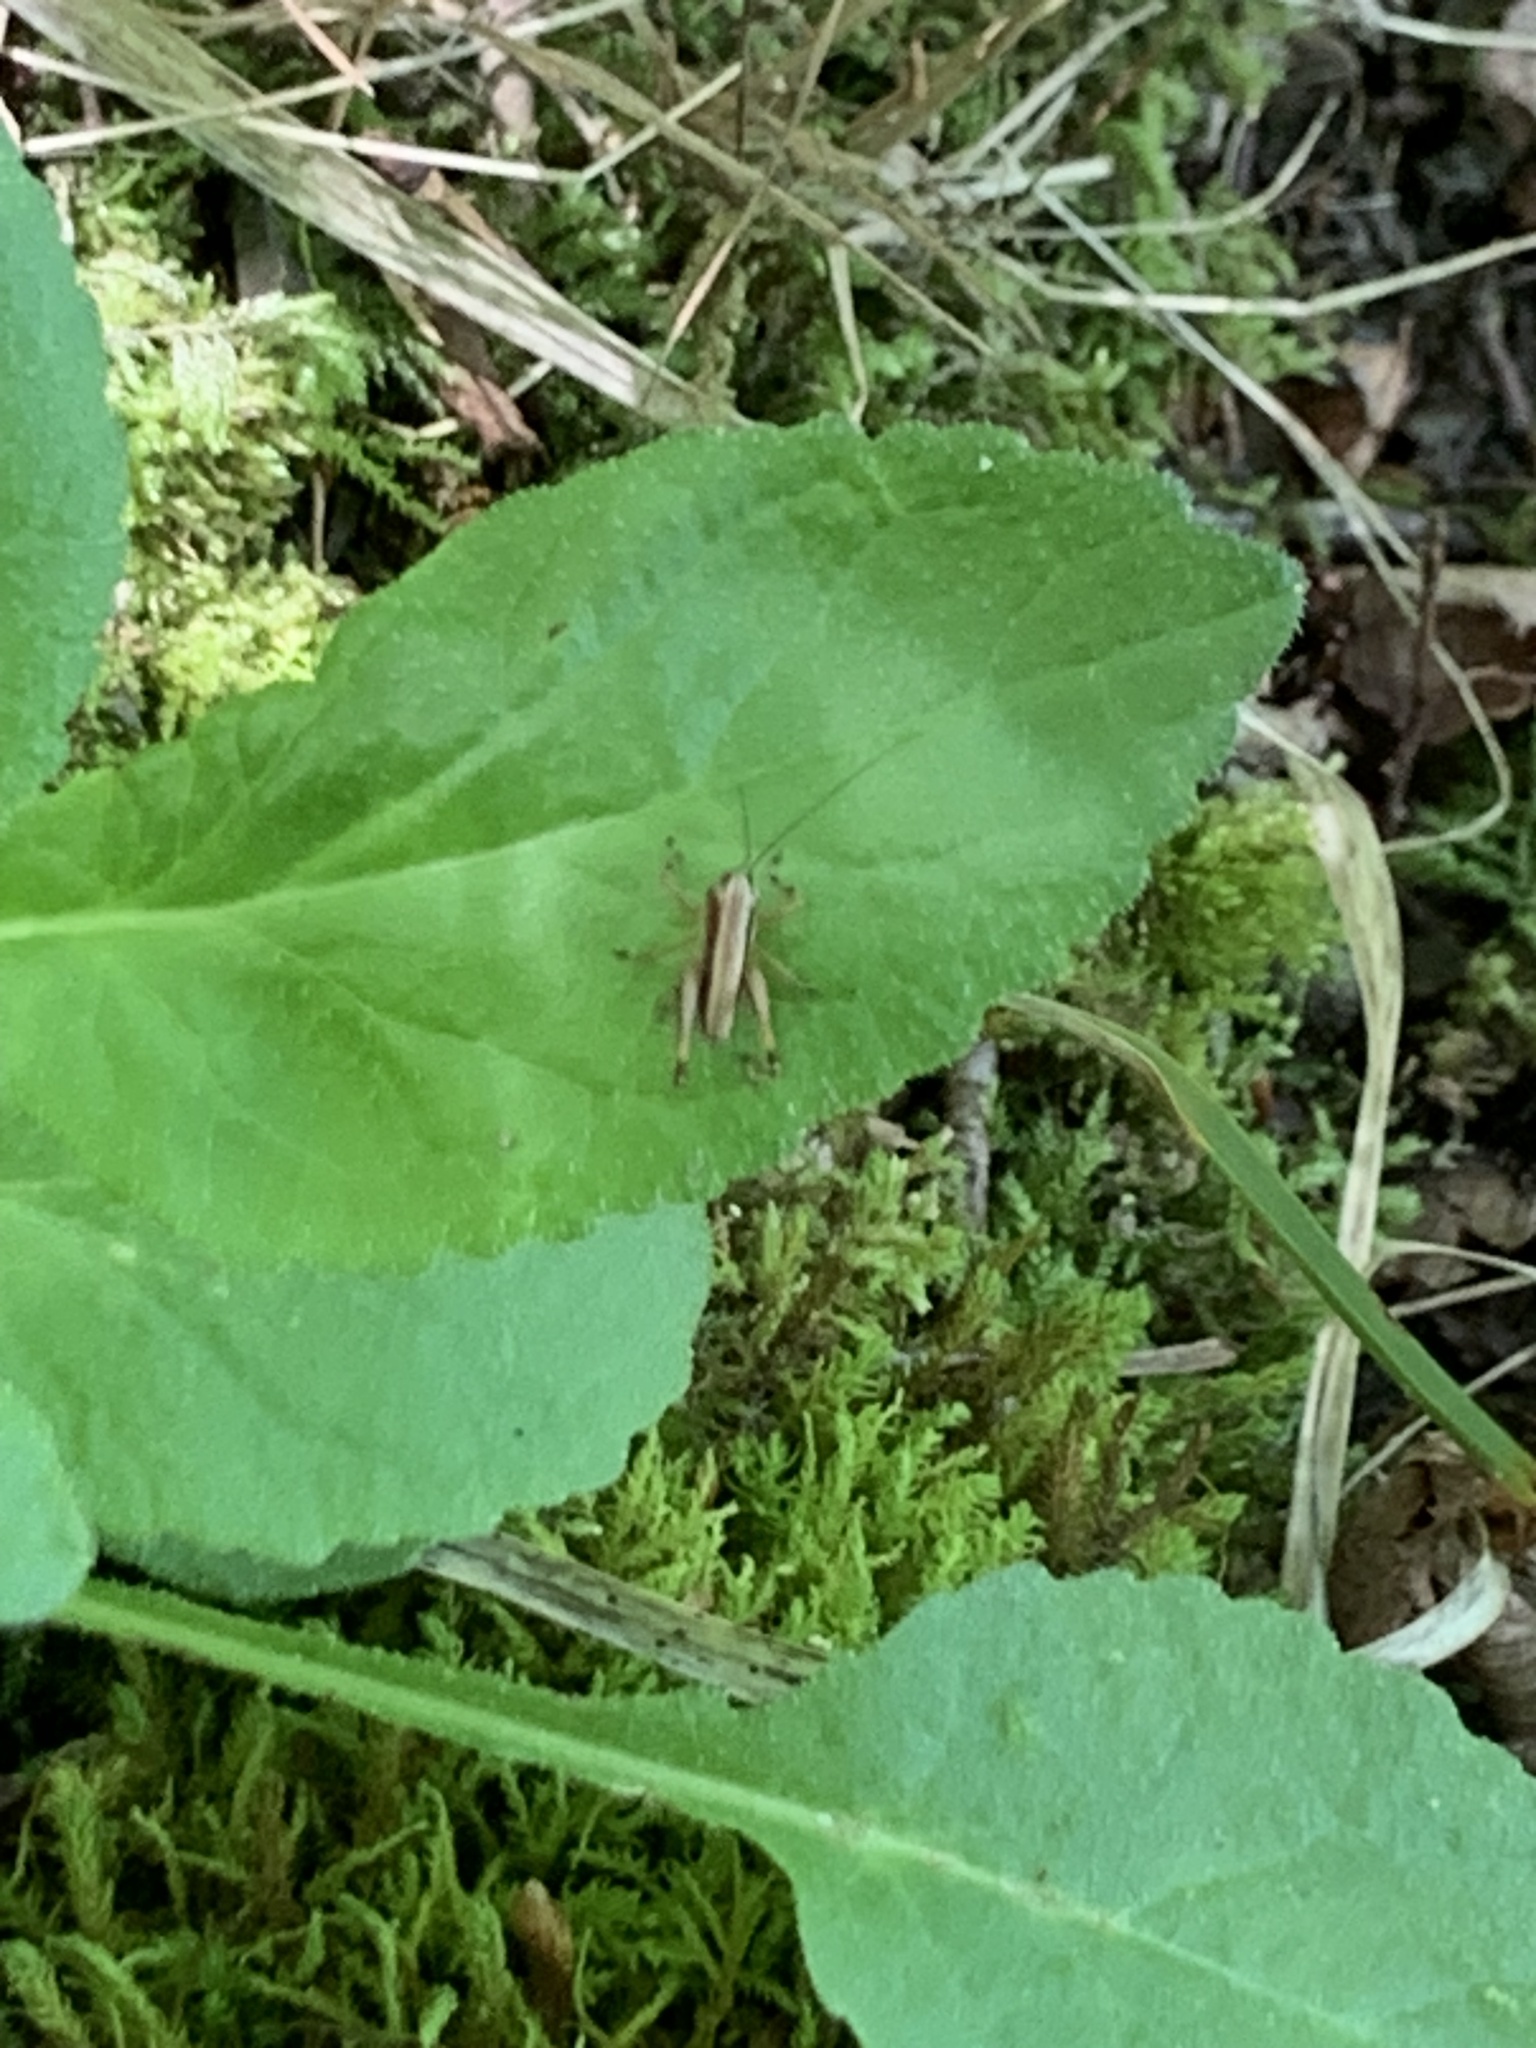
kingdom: Animalia
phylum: Arthropoda
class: Insecta
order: Orthoptera
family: Tettigoniidae
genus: Pholidoptera
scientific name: Pholidoptera griseoaptera
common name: Dark bush-cricket
